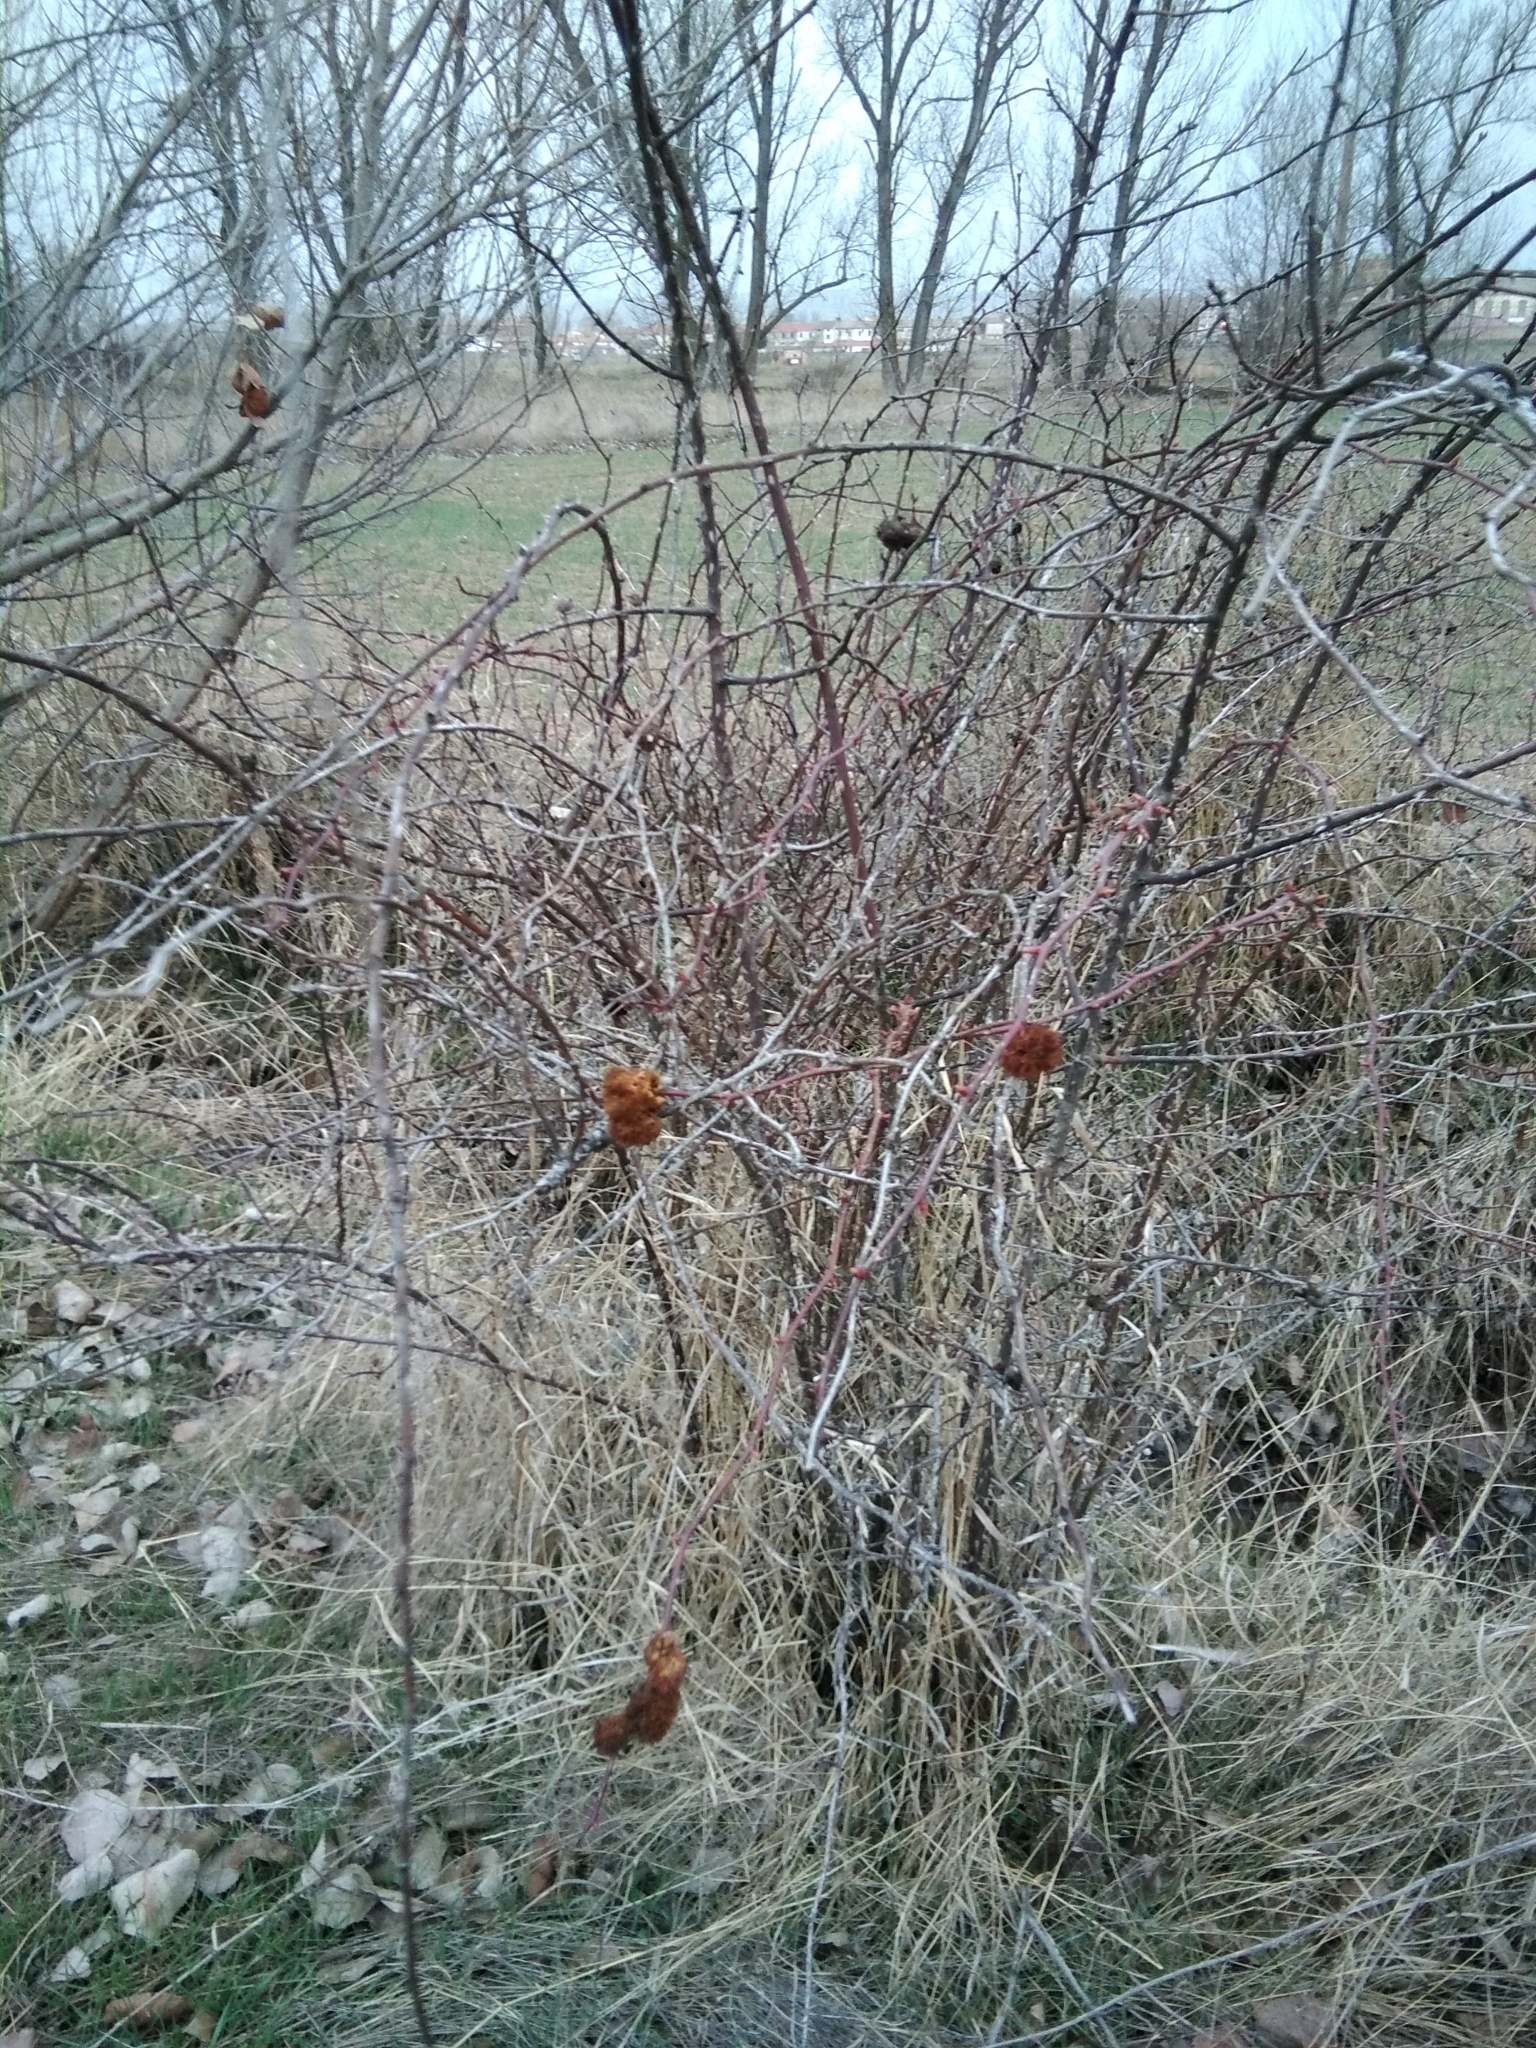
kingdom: Animalia
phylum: Arthropoda
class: Insecta
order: Hymenoptera
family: Cynipidae
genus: Diplolepis
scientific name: Diplolepis rosae
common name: Bedeguar gall
